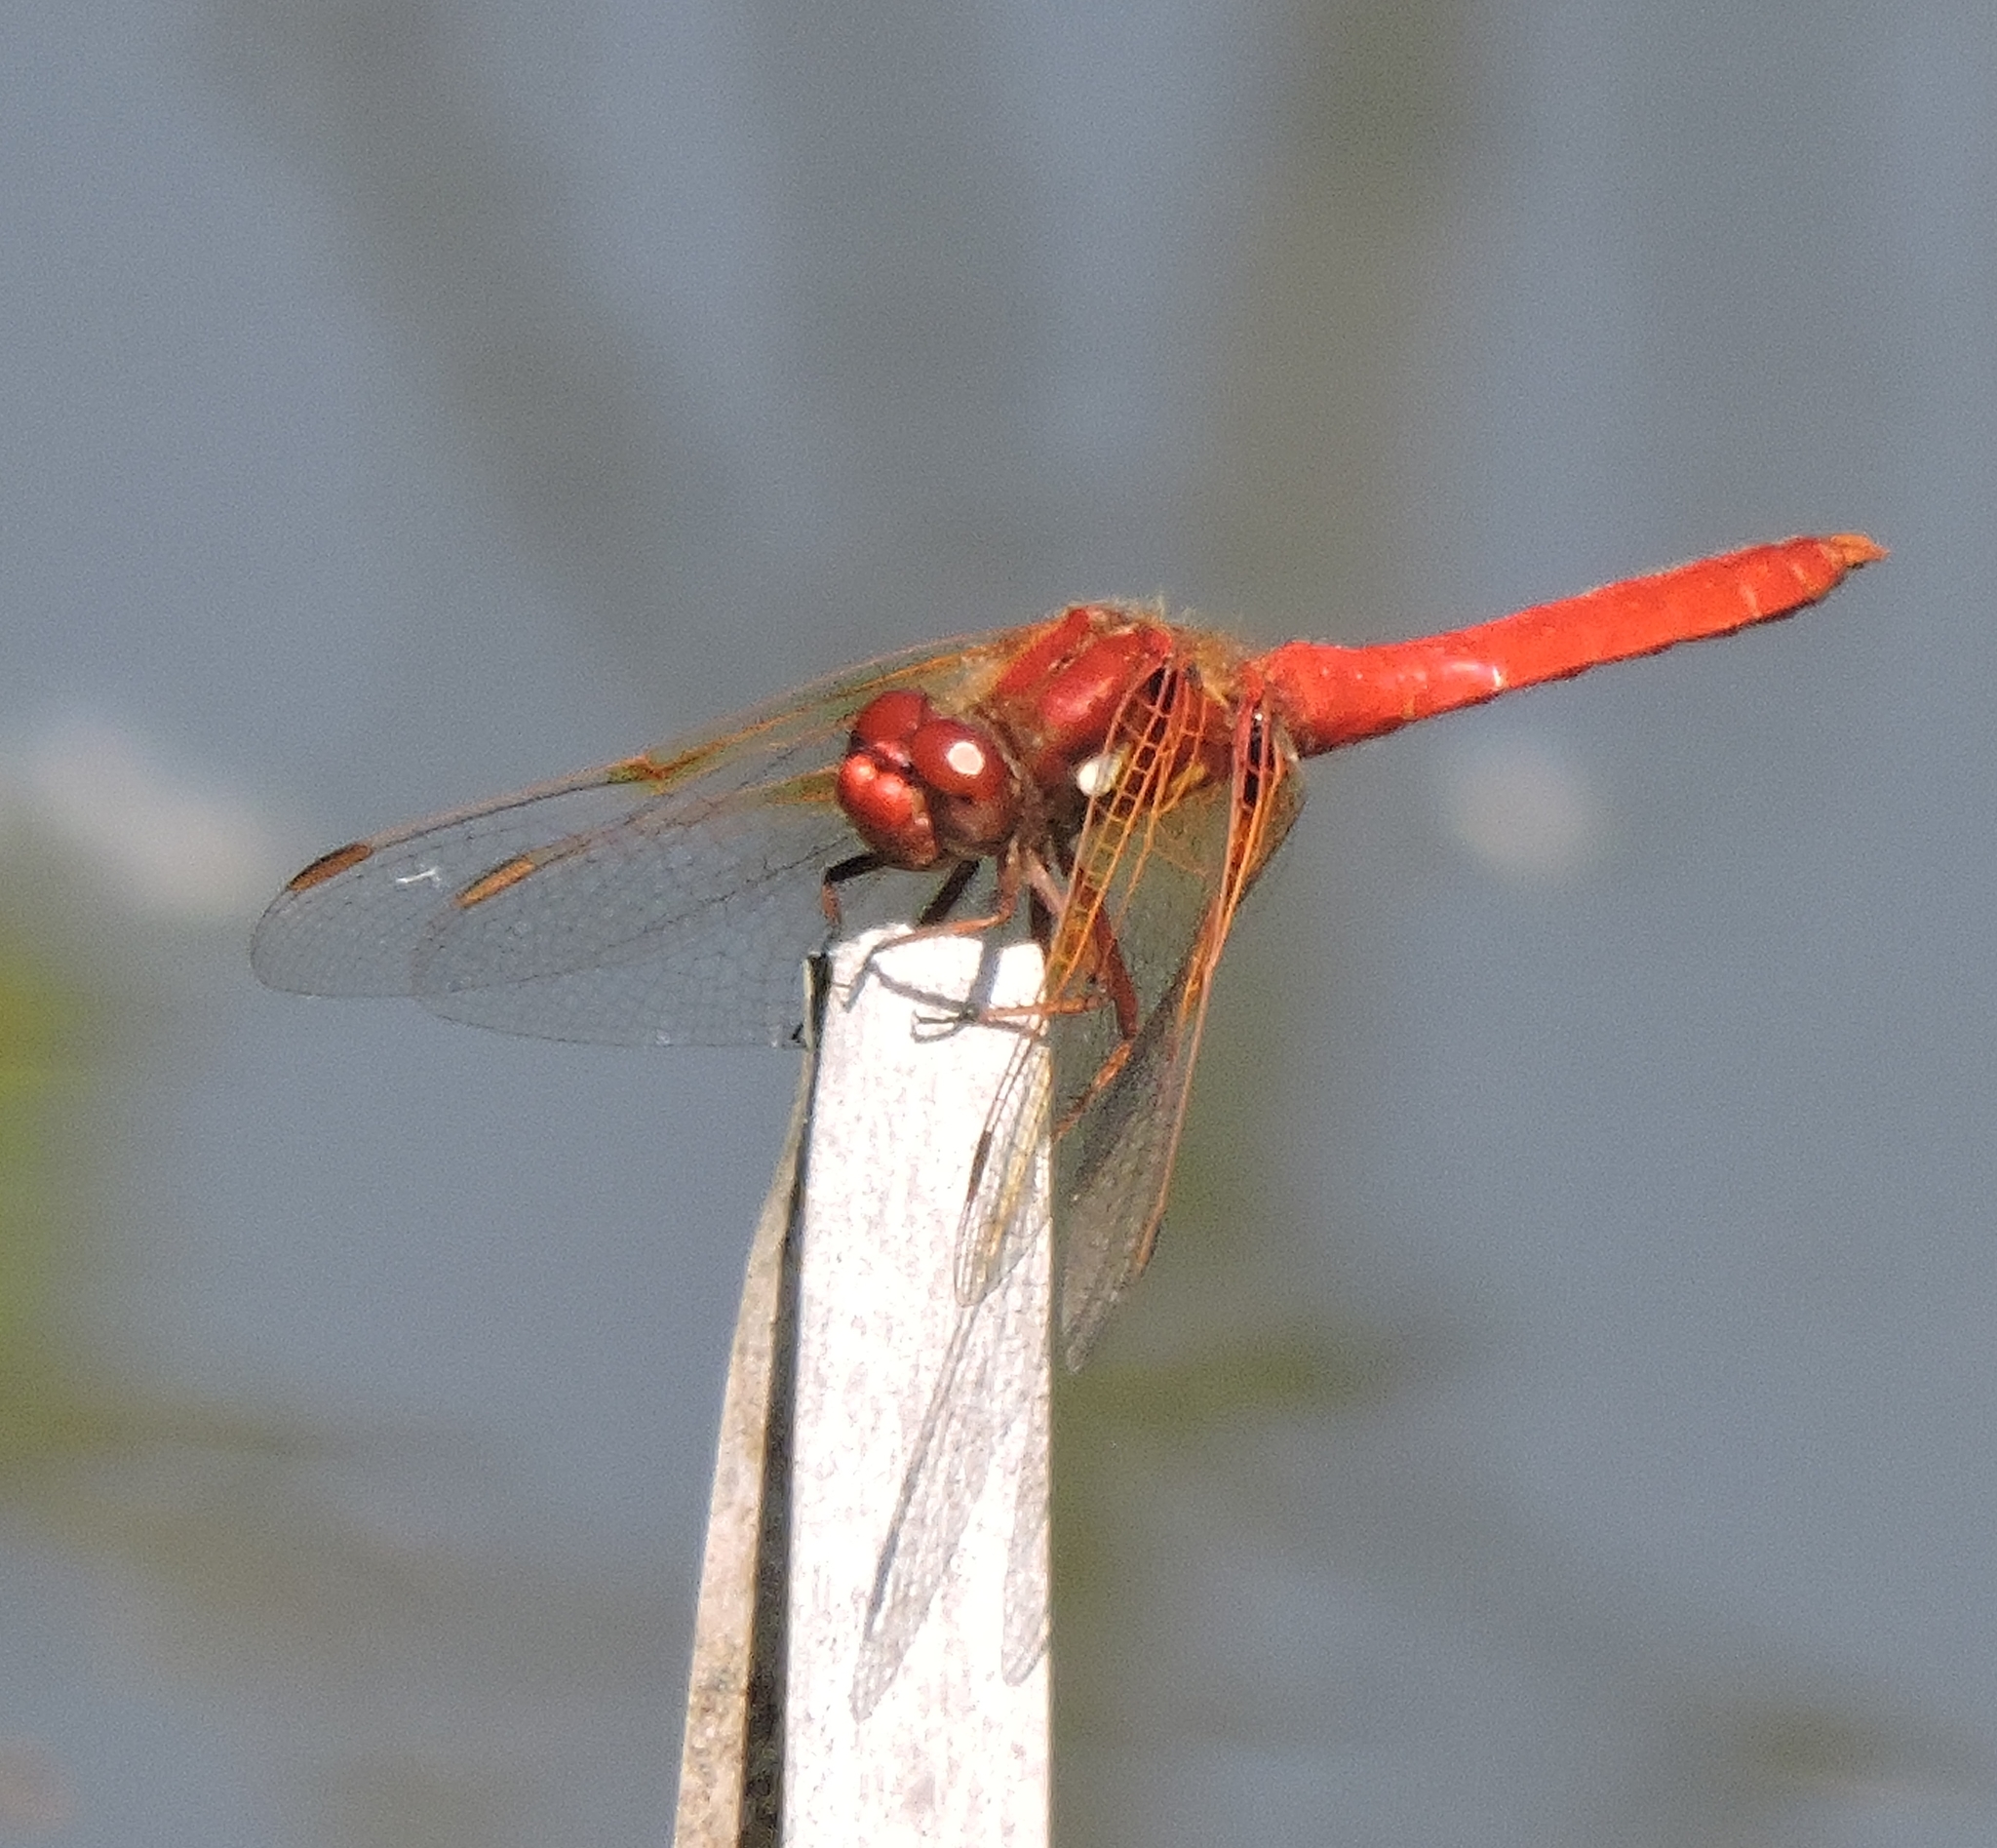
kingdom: Animalia
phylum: Arthropoda
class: Insecta
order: Odonata
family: Libellulidae
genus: Sympetrum
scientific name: Sympetrum illotum
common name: Cardinal meadowhawk
